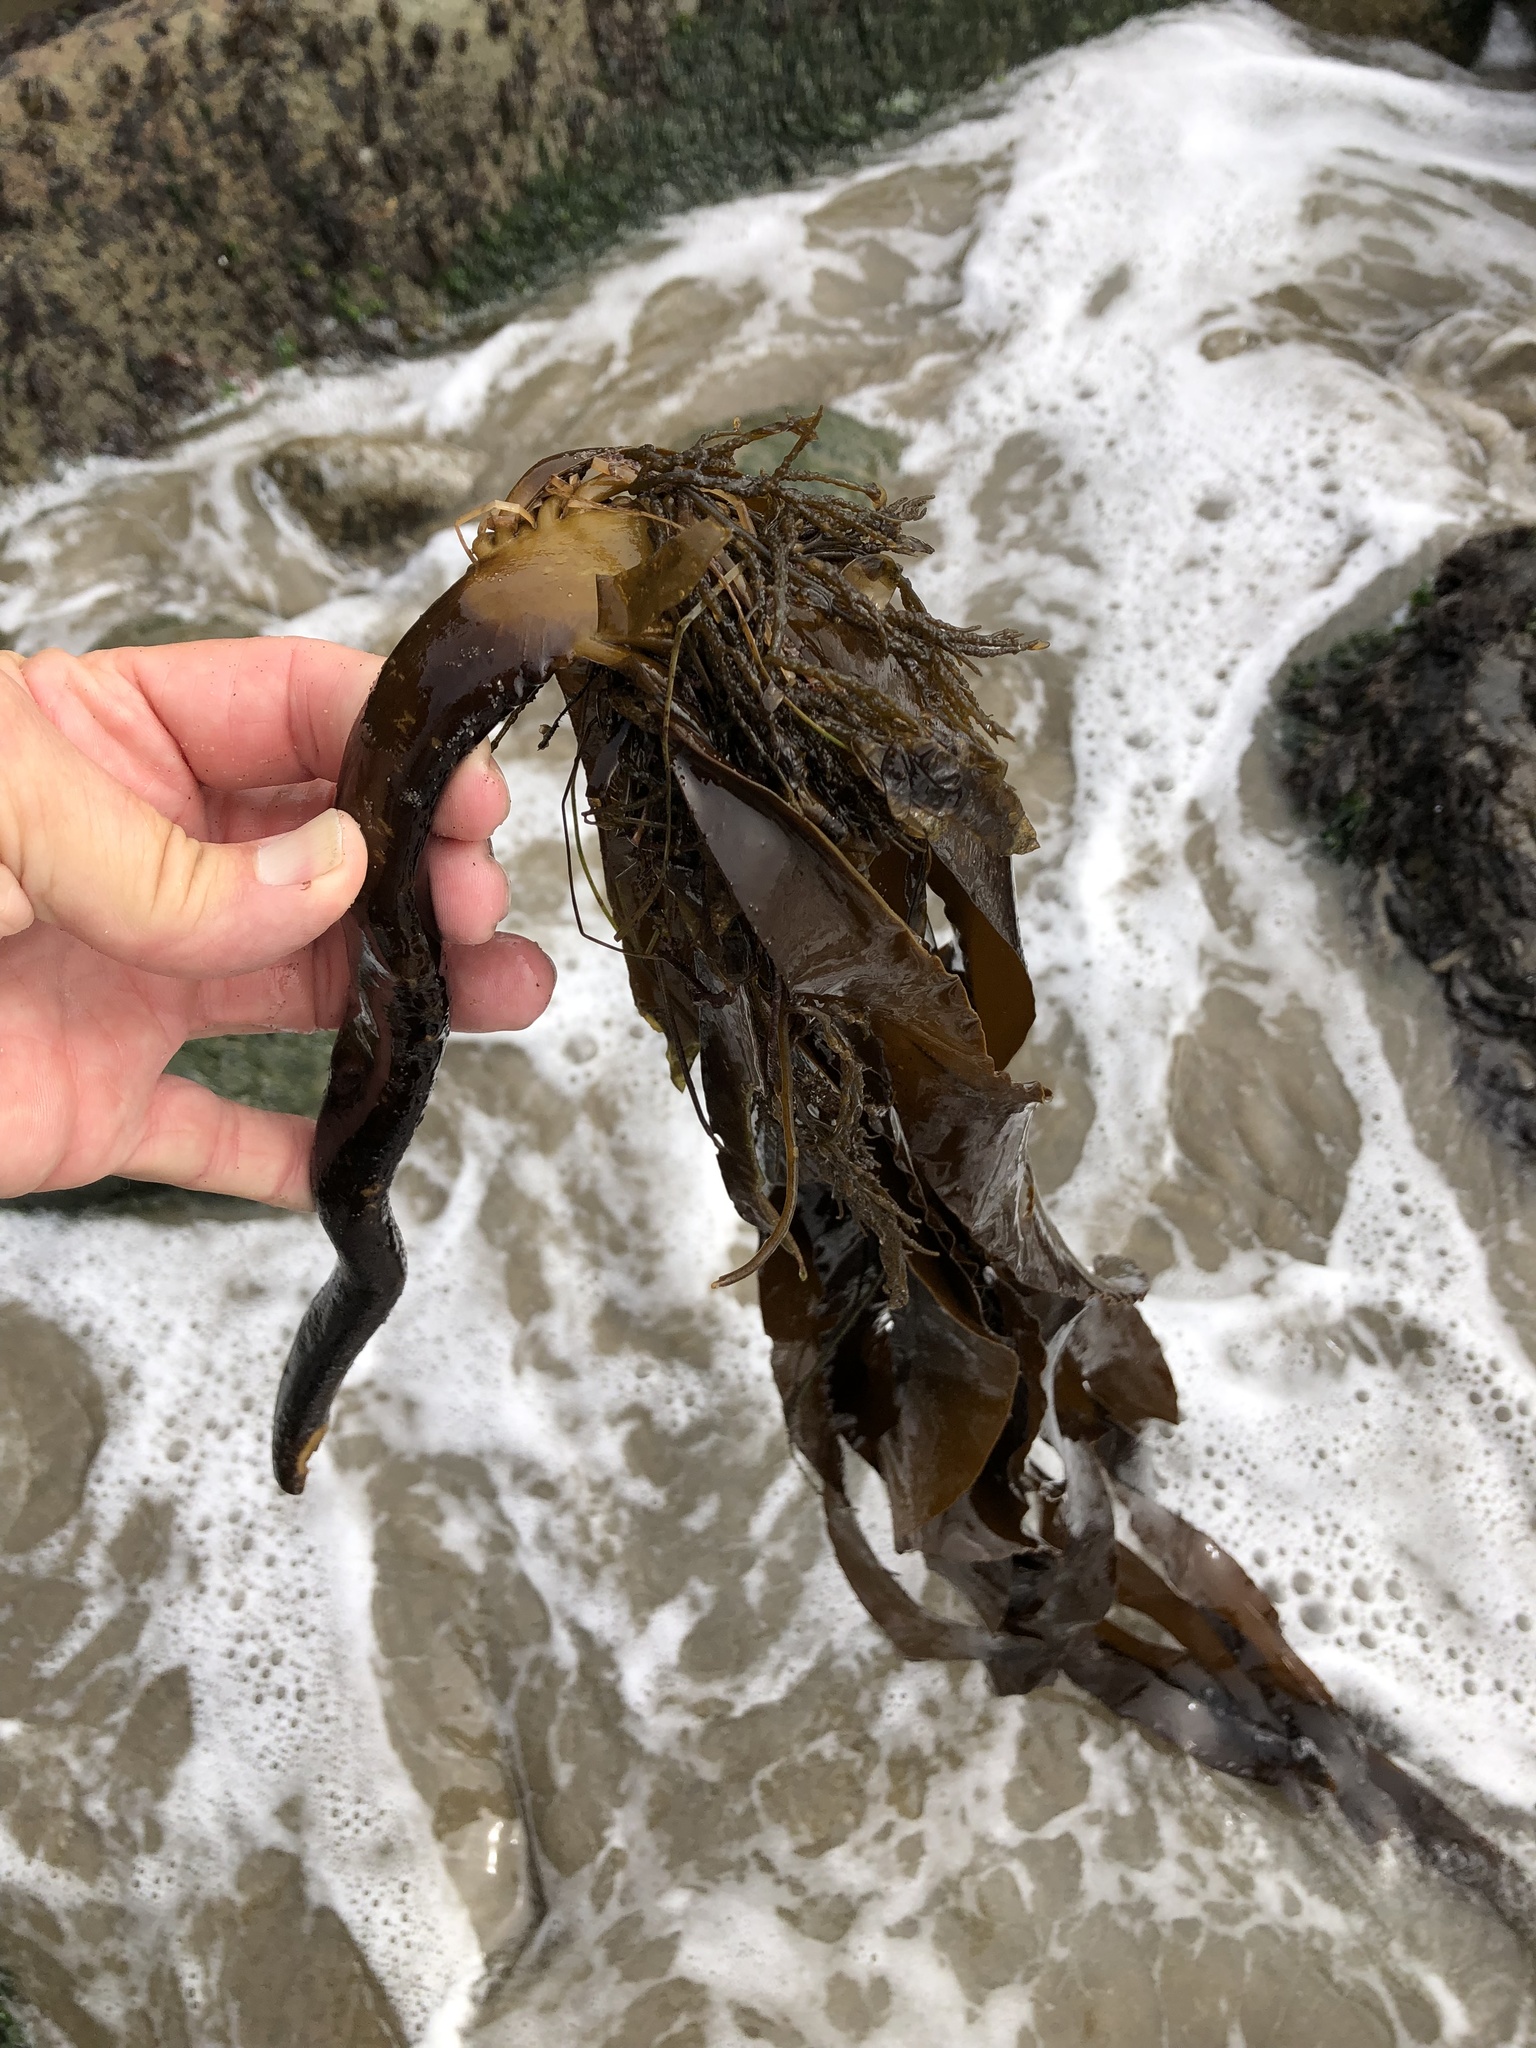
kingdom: Chromista
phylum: Ochrophyta
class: Phaeophyceae
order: Laminariales
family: Alariaceae
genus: Pterygophora
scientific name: Pterygophora californica
